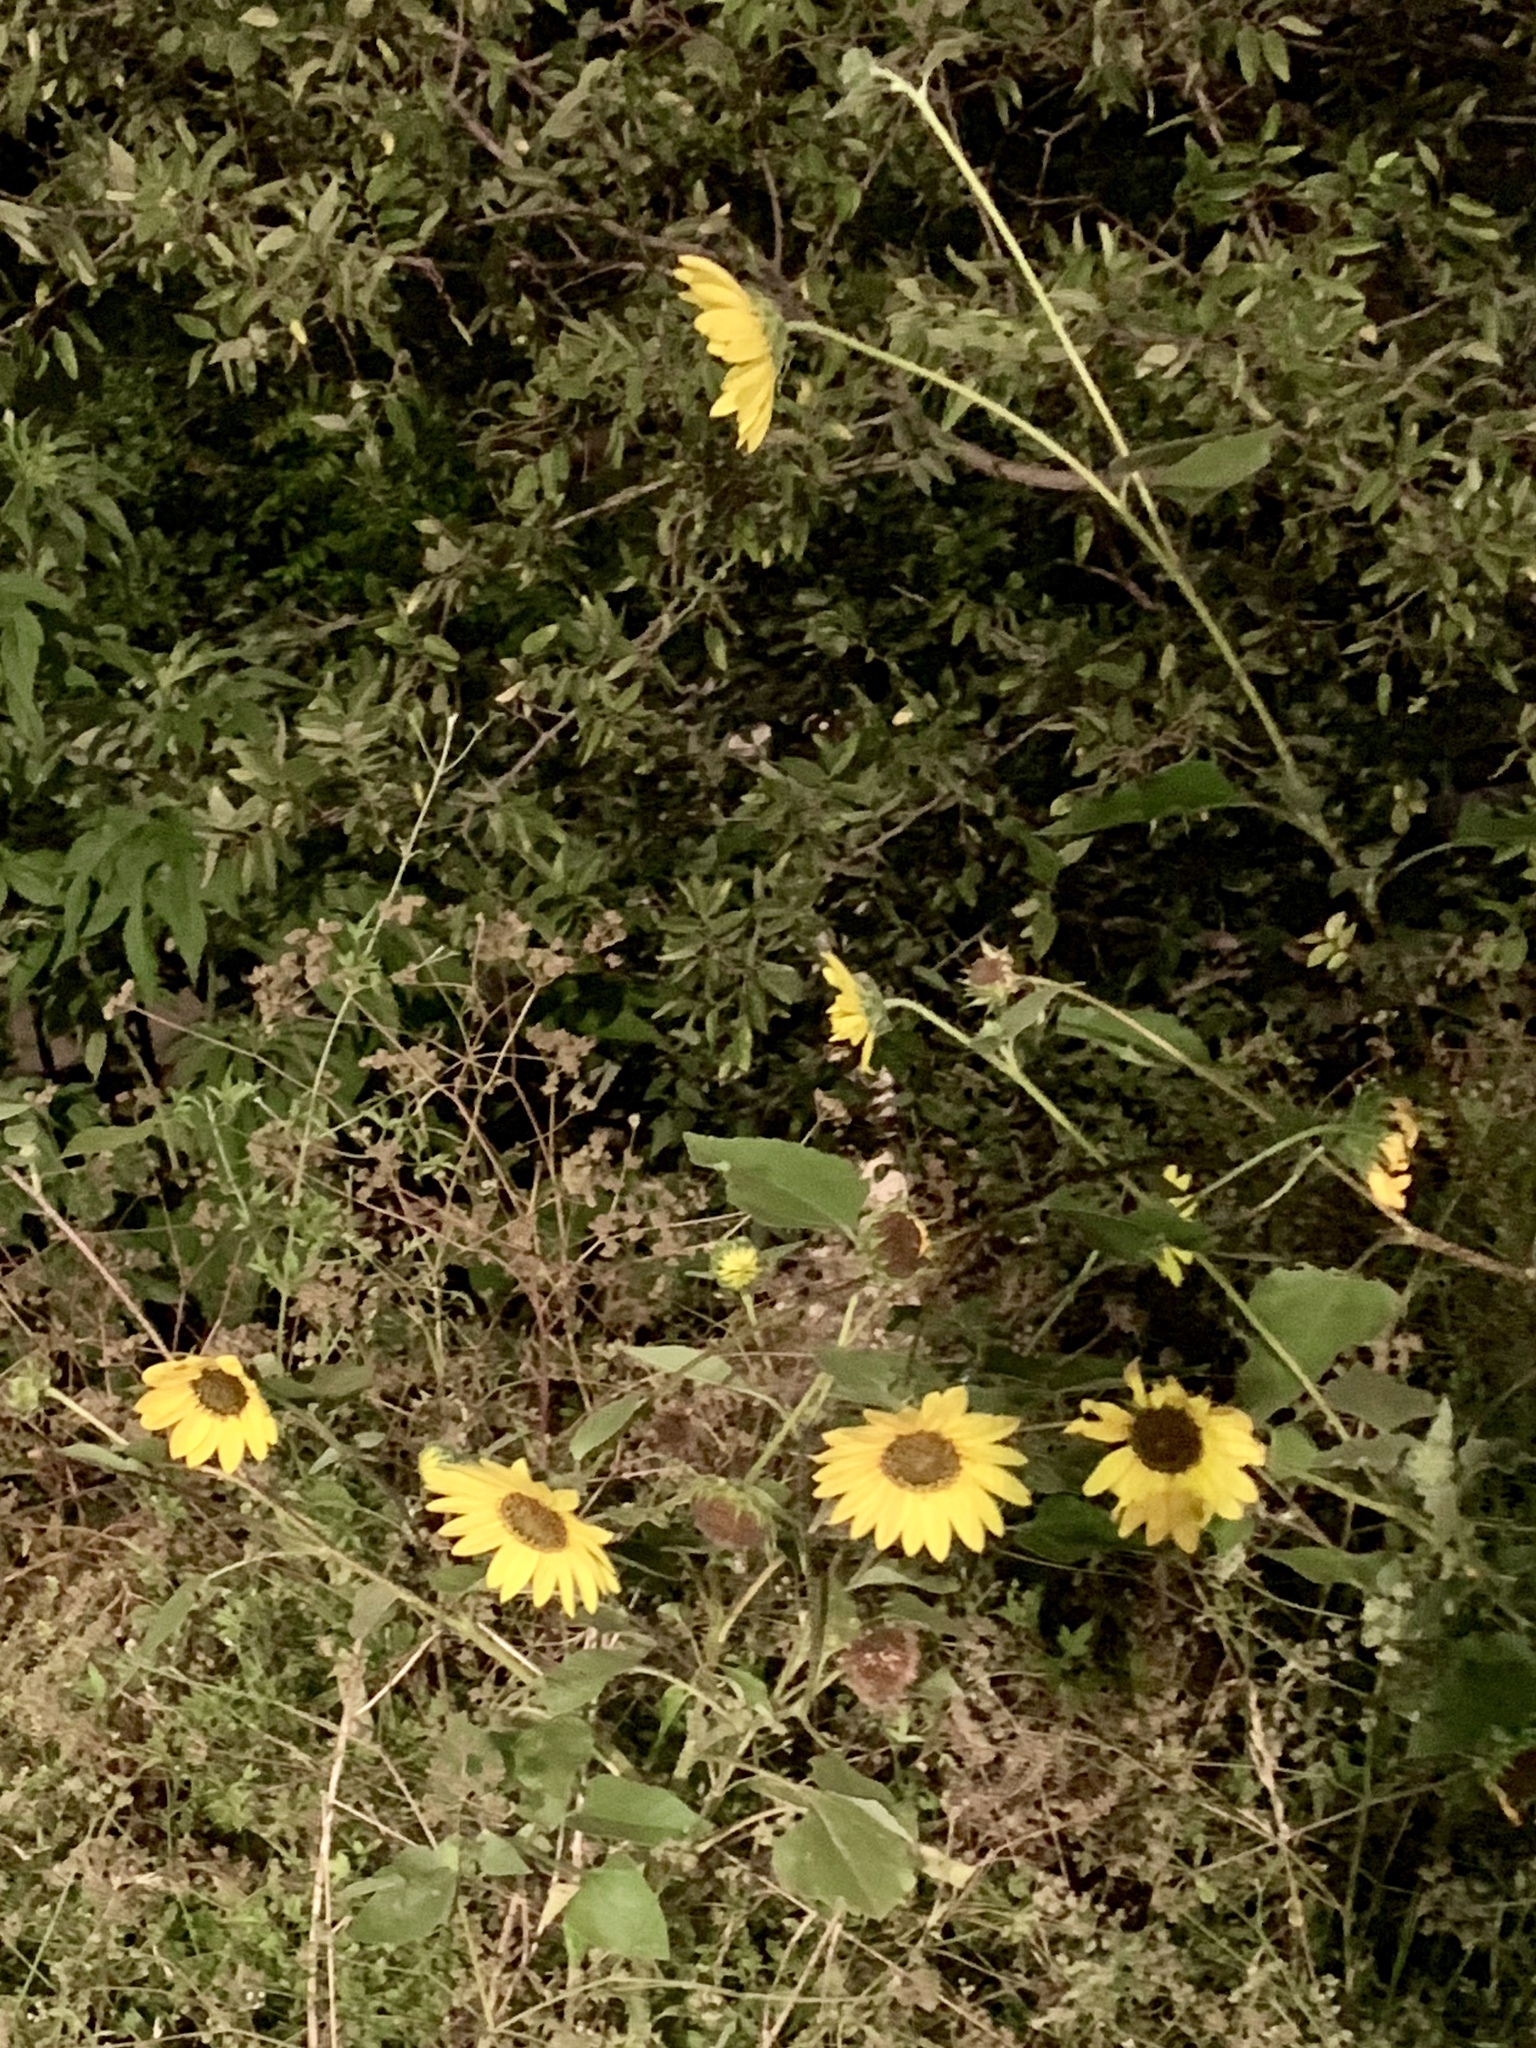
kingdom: Plantae
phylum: Tracheophyta
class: Magnoliopsida
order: Asterales
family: Asteraceae
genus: Helianthus
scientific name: Helianthus annuus
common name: Sunflower
